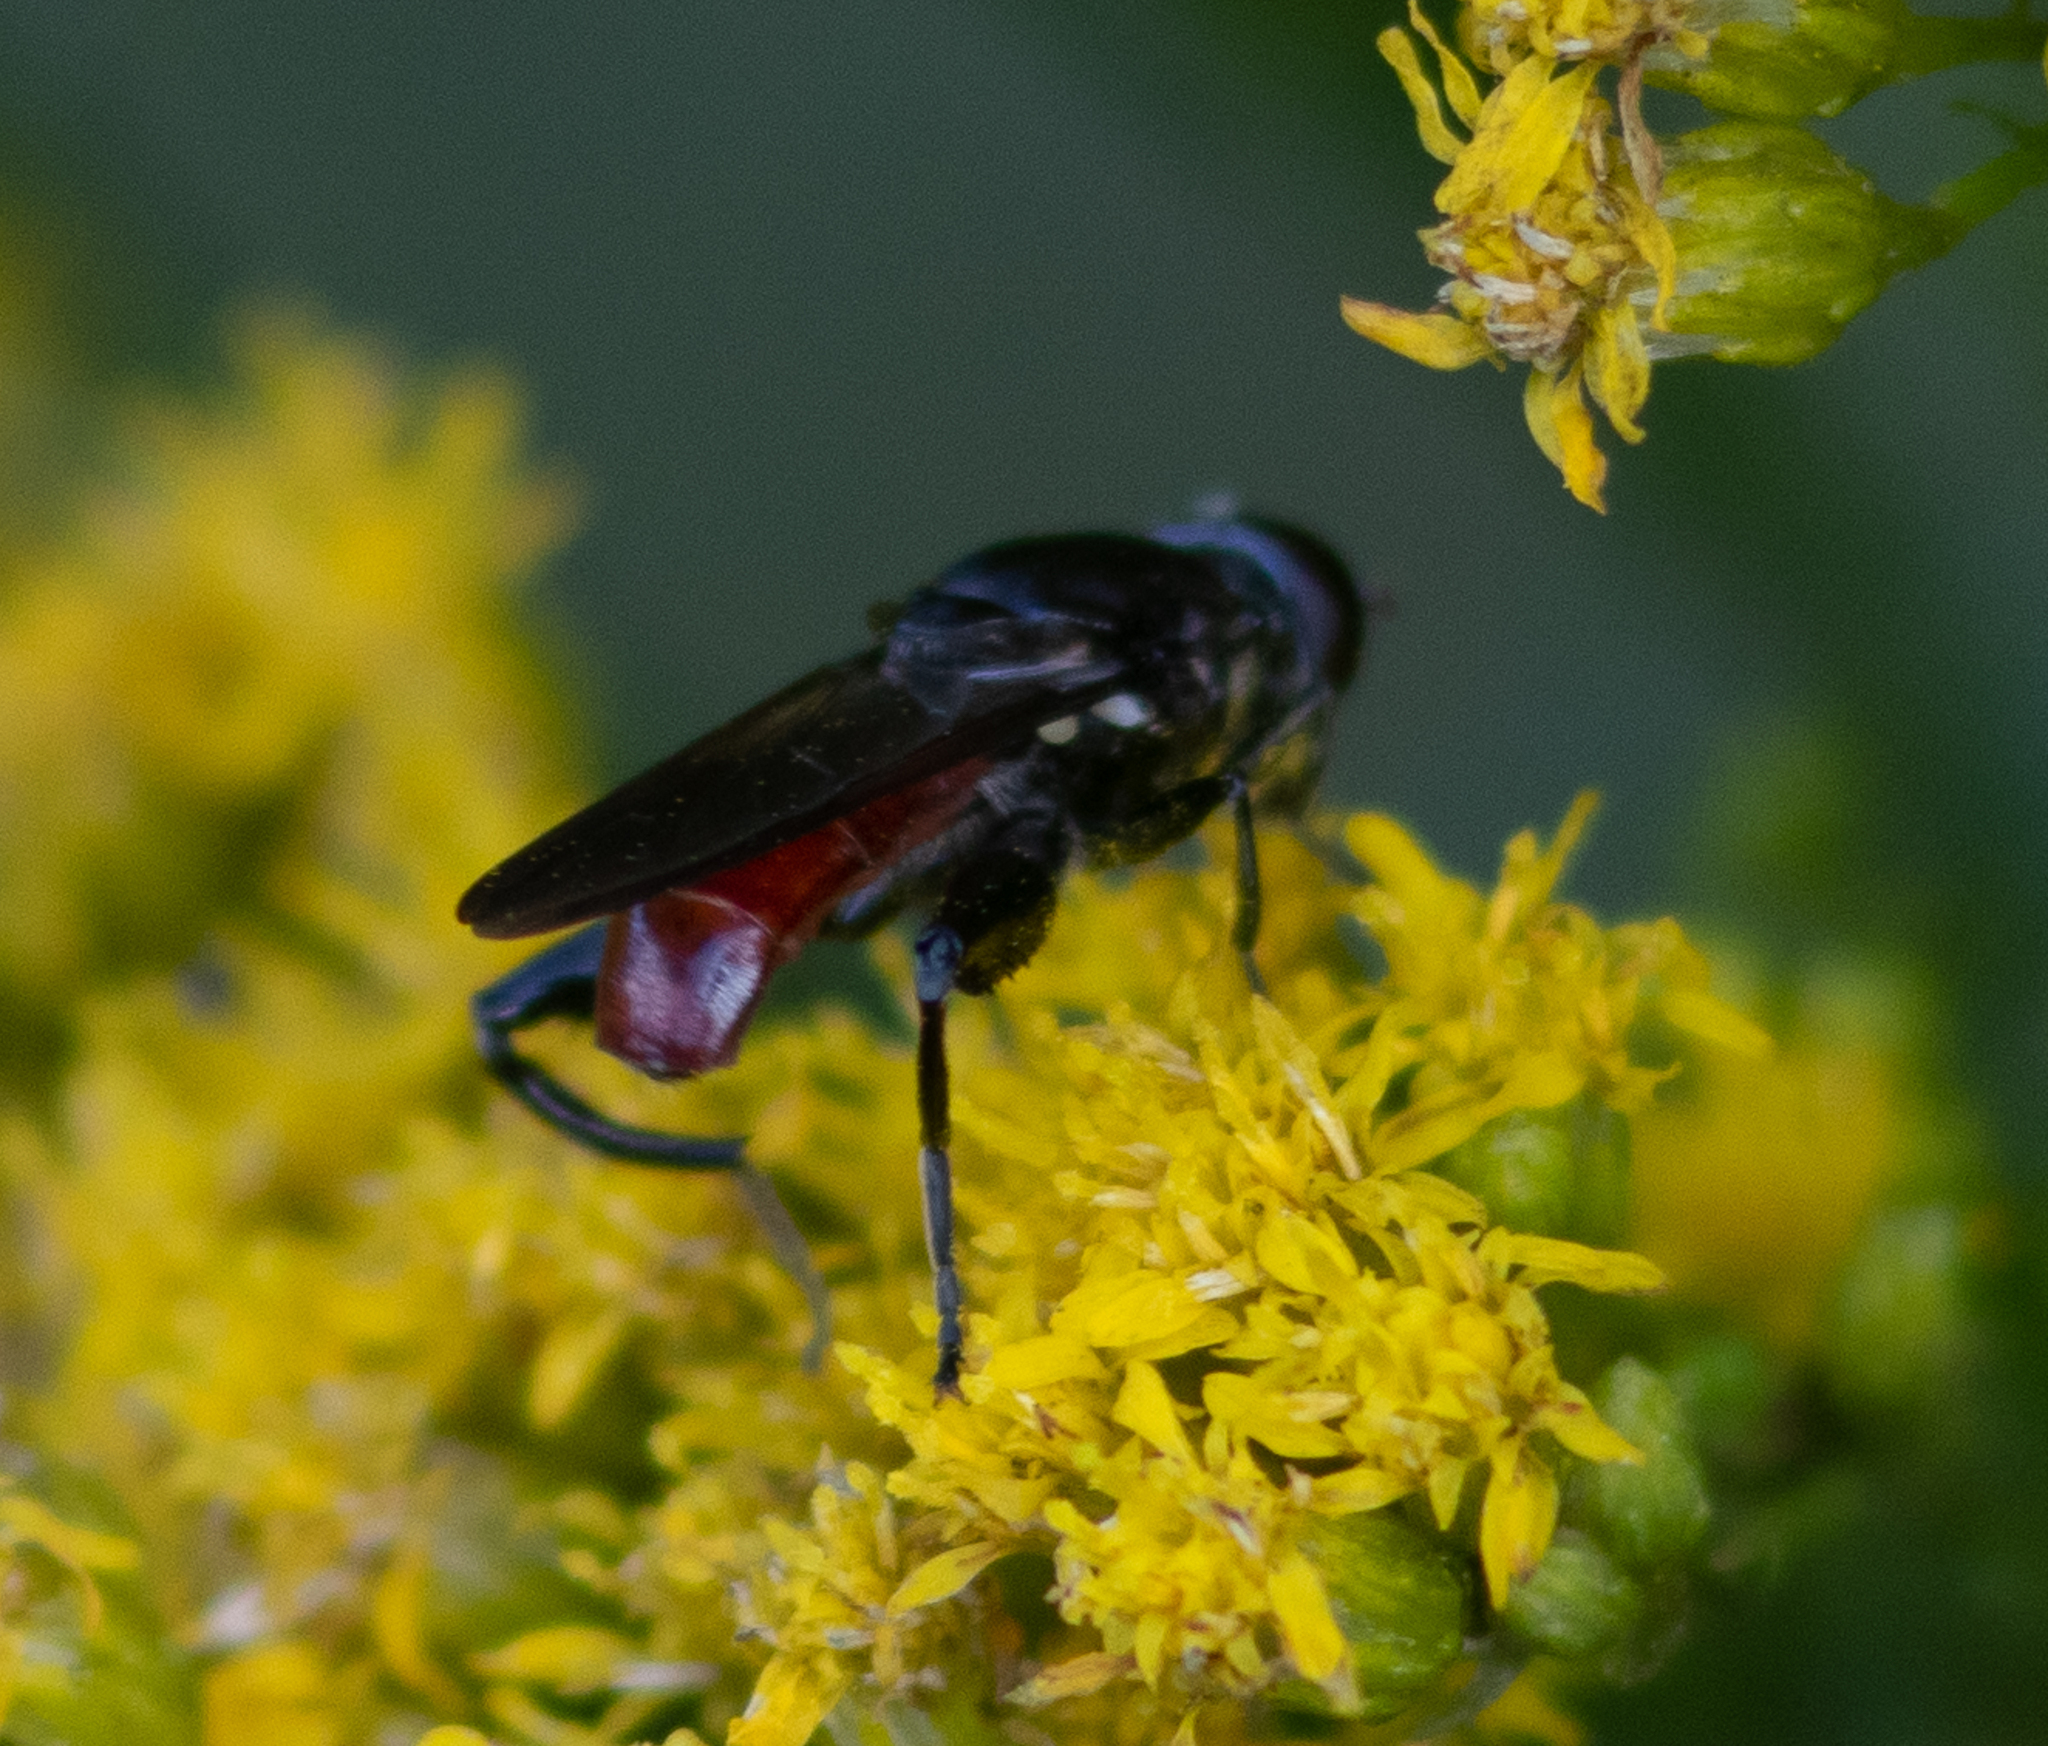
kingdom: Animalia
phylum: Arthropoda
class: Insecta
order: Diptera
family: Syrphidae
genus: Chalcosyrphus
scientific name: Chalcosyrphus piger
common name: Short-haired leafwalker
